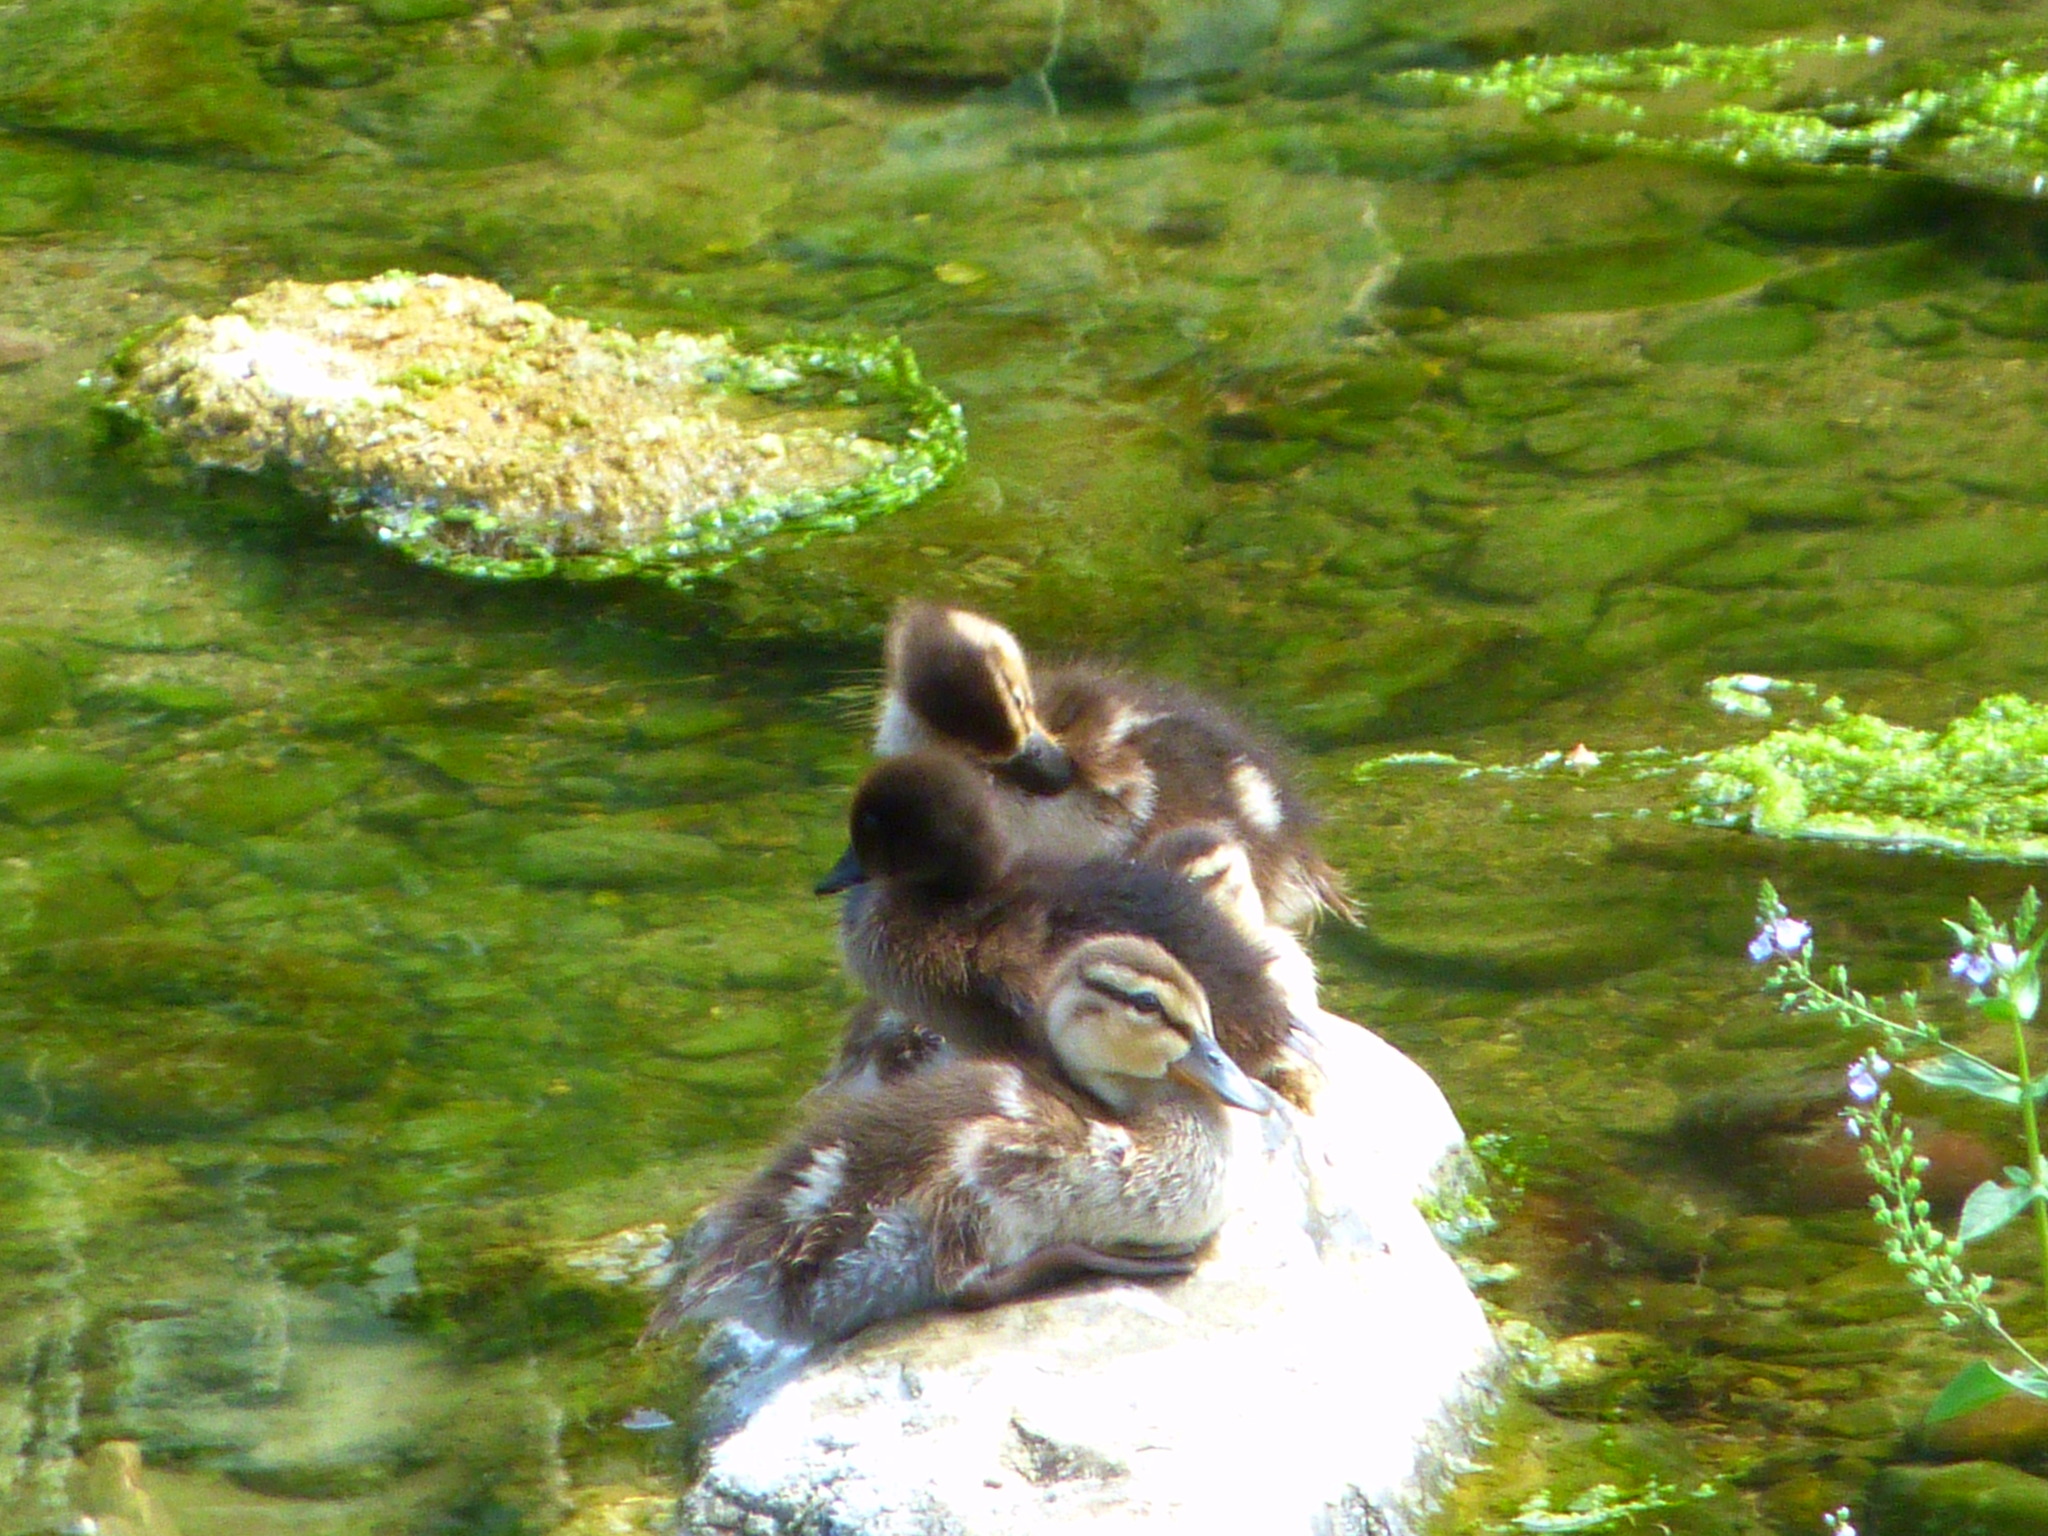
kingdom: Animalia
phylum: Chordata
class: Aves
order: Anseriformes
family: Anatidae
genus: Anas
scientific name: Anas platyrhynchos
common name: Mallard
